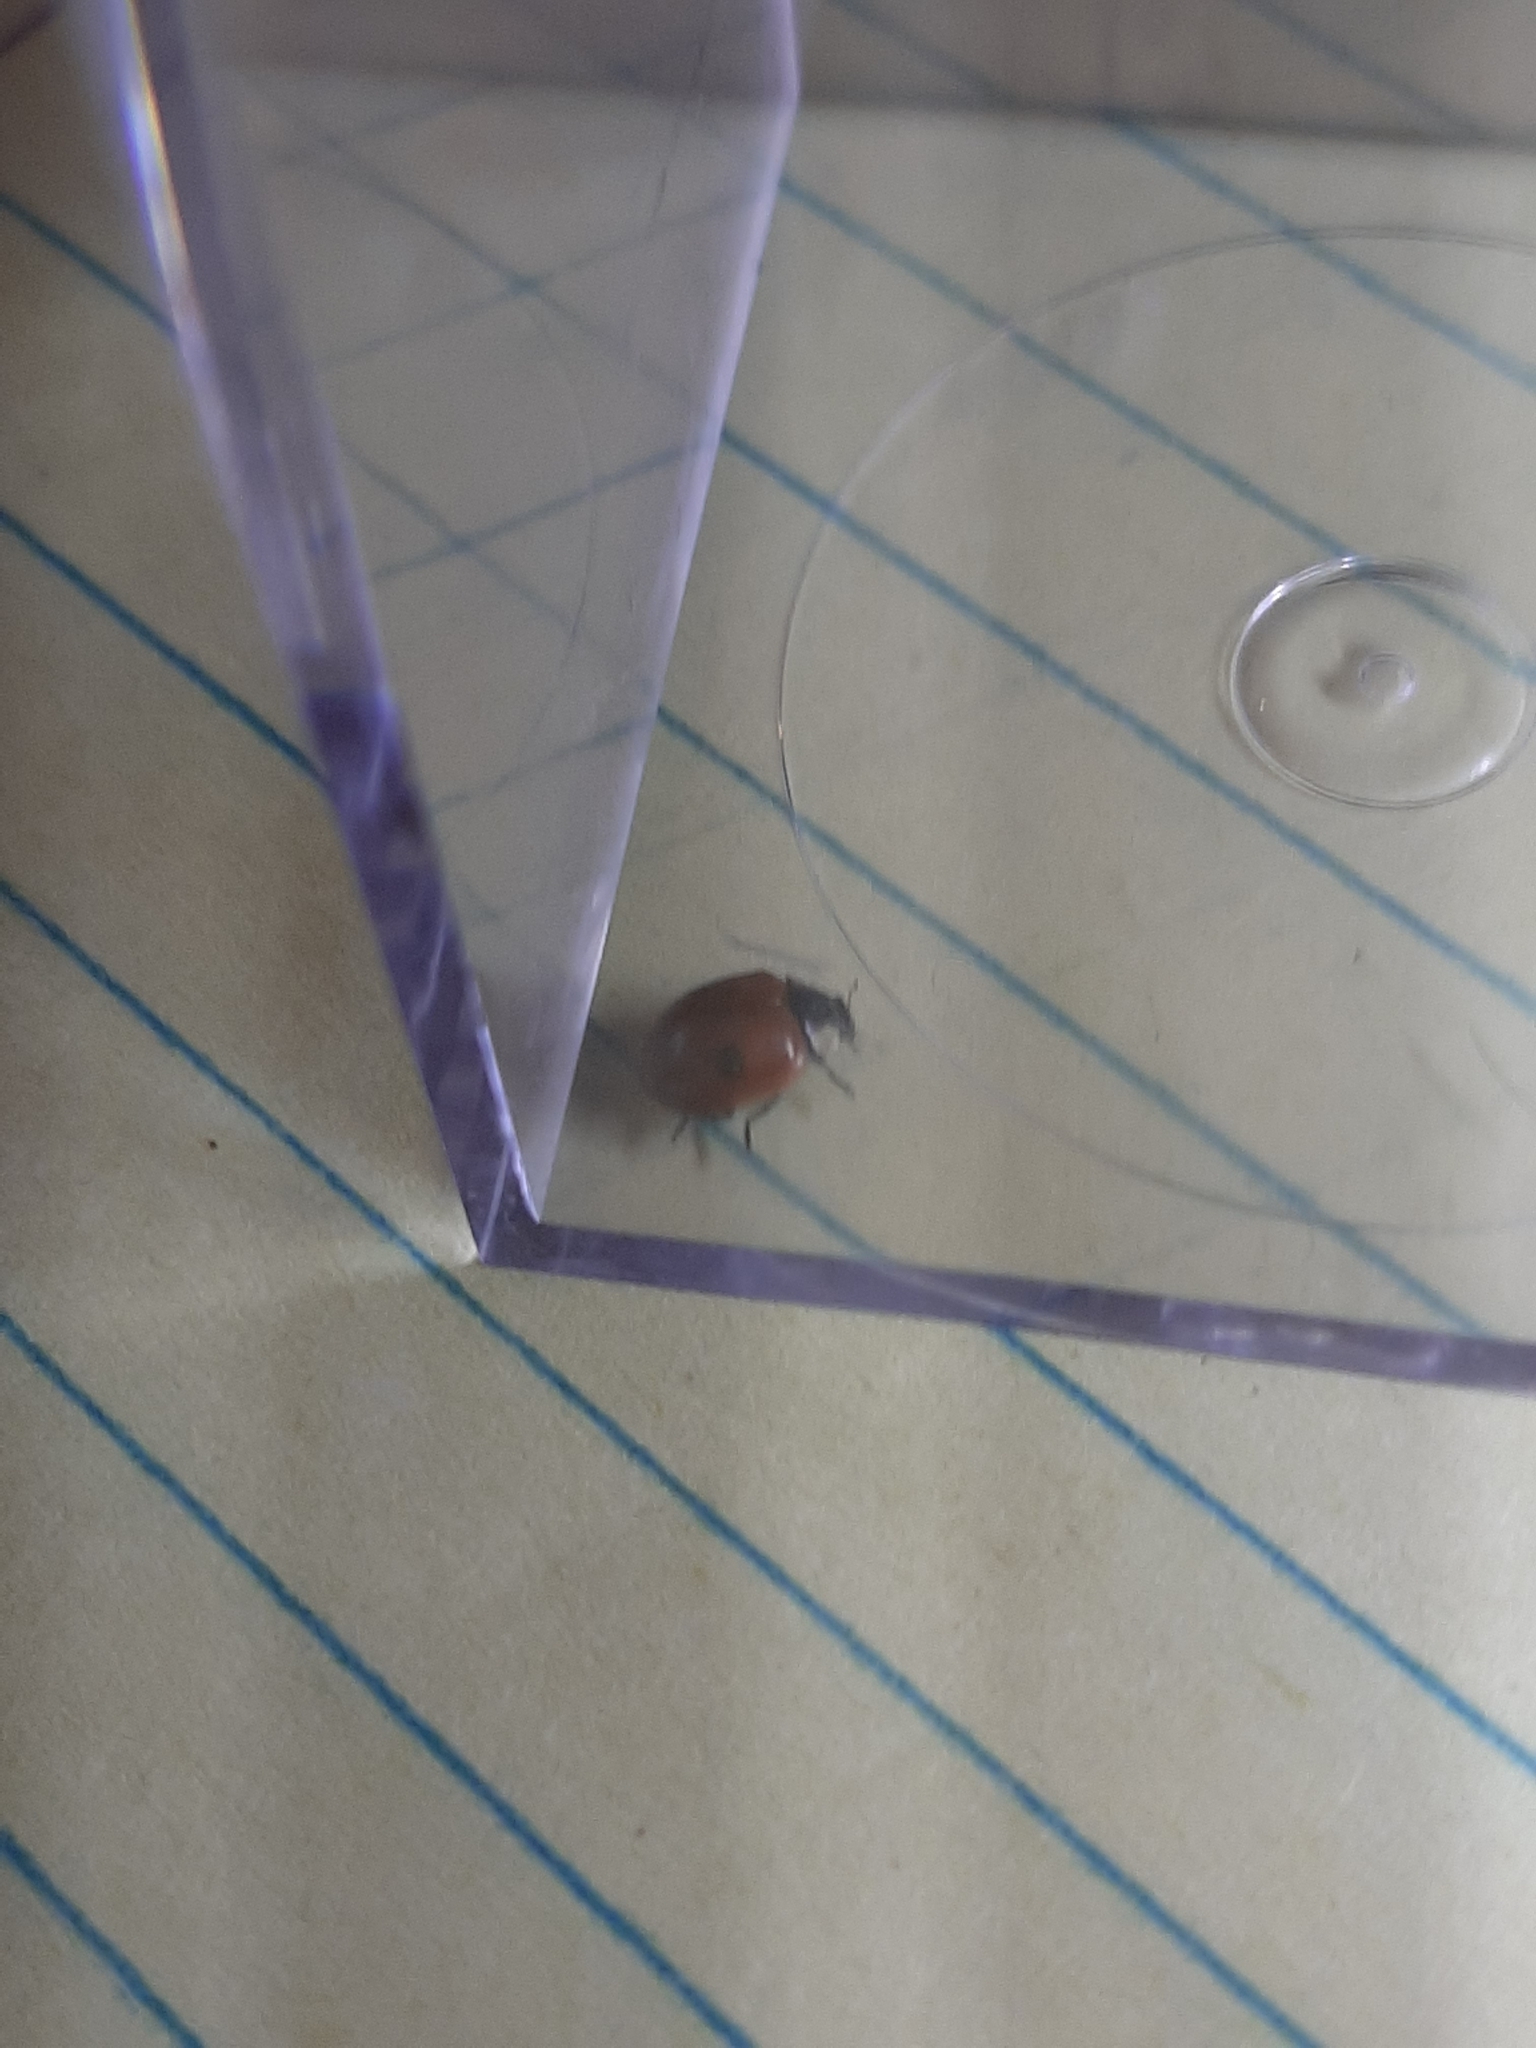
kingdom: Animalia
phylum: Arthropoda
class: Insecta
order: Coleoptera
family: Coccinellidae
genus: Adalia
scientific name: Adalia bipunctata
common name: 2-spot ladybird
